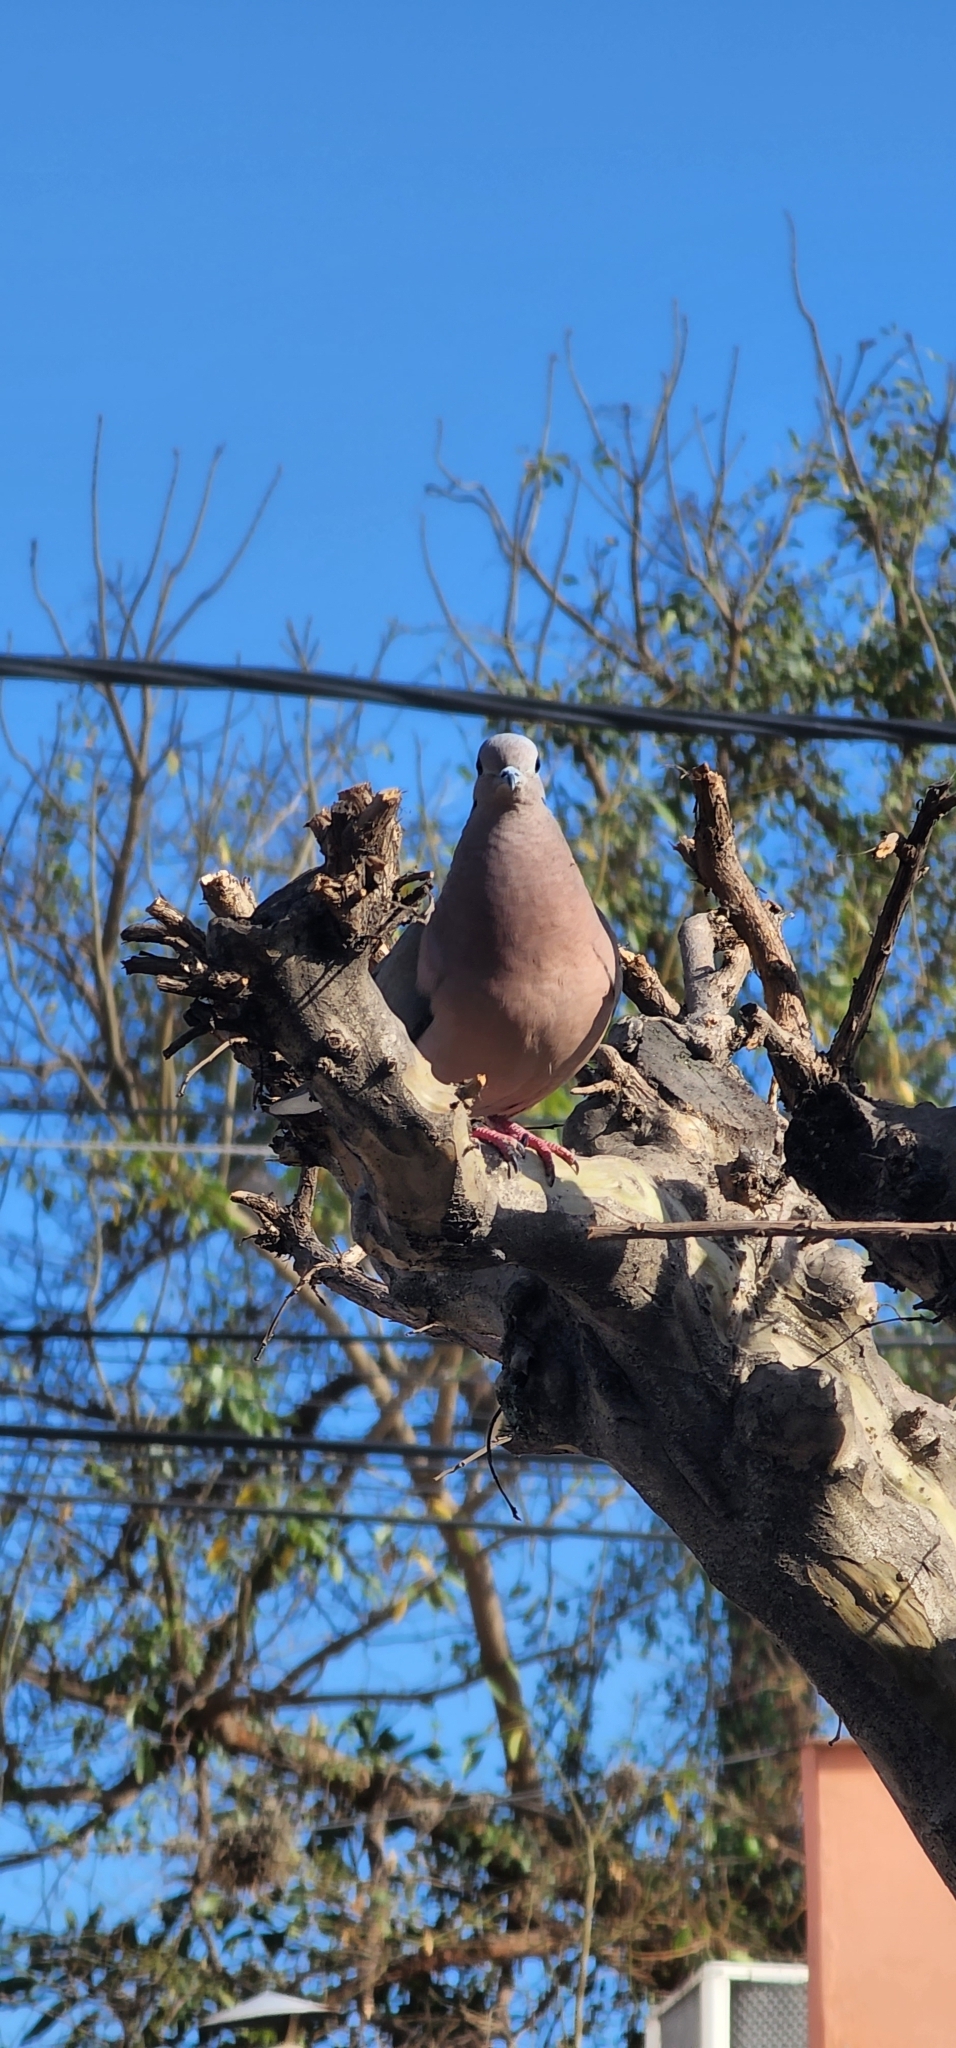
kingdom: Animalia
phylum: Chordata
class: Aves
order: Columbiformes
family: Columbidae
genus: Zenaida
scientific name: Zenaida auriculata
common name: Eared dove
